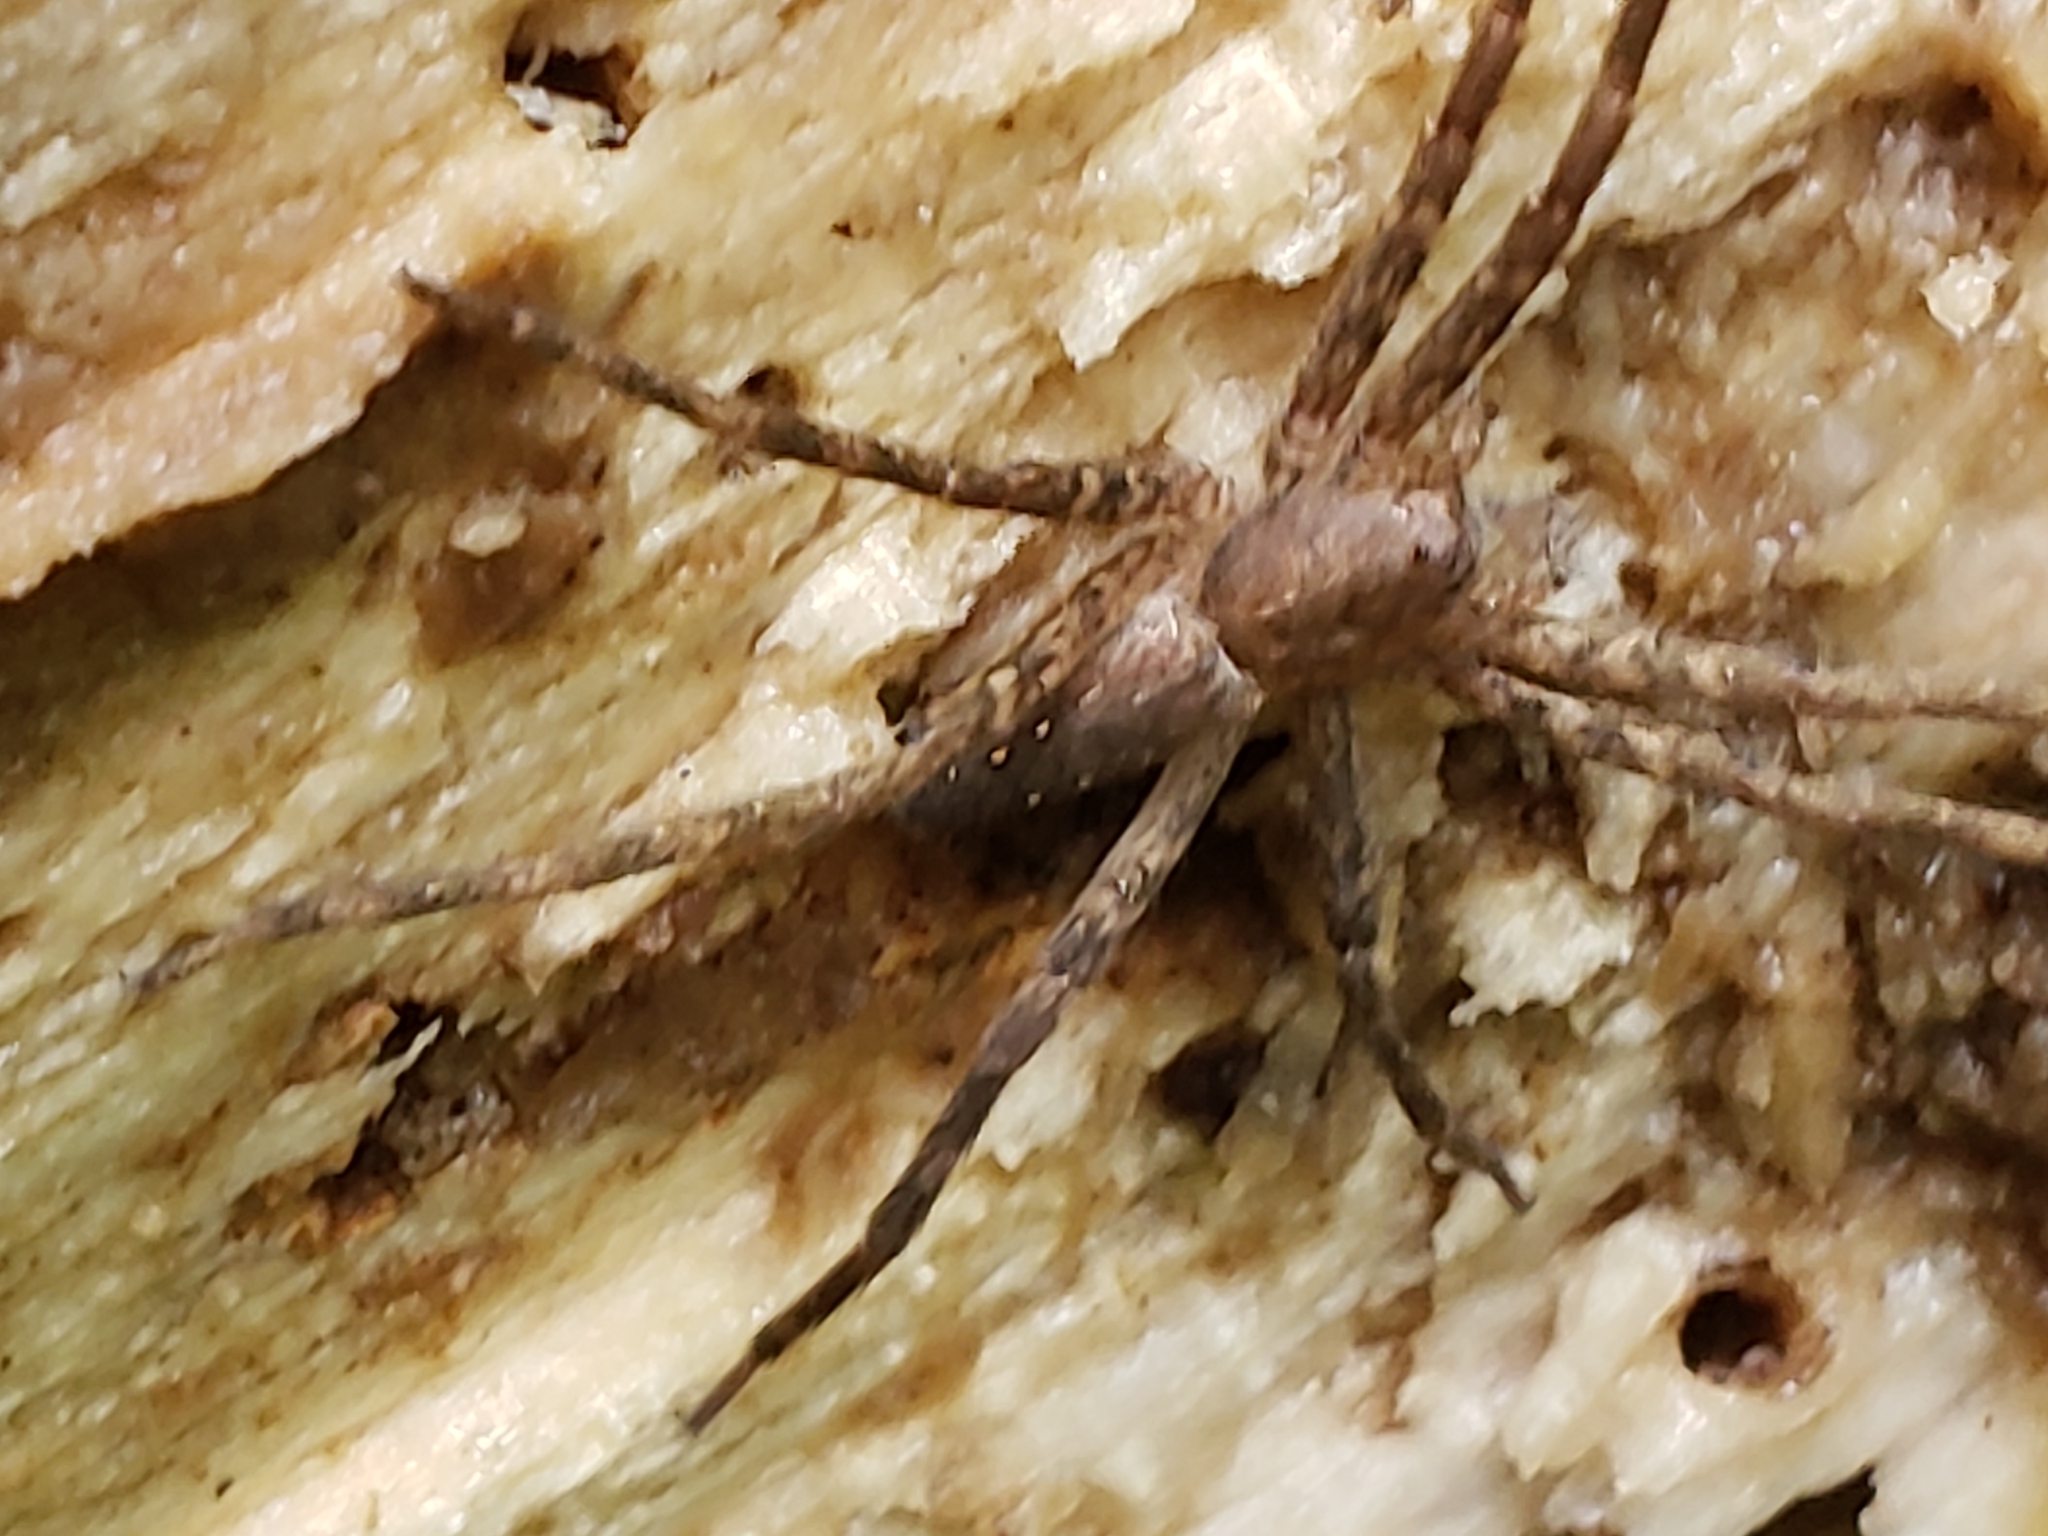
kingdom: Animalia
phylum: Arthropoda
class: Arachnida
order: Araneae
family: Pisauridae
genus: Pisaurina
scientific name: Pisaurina mira
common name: American nursery web spider
